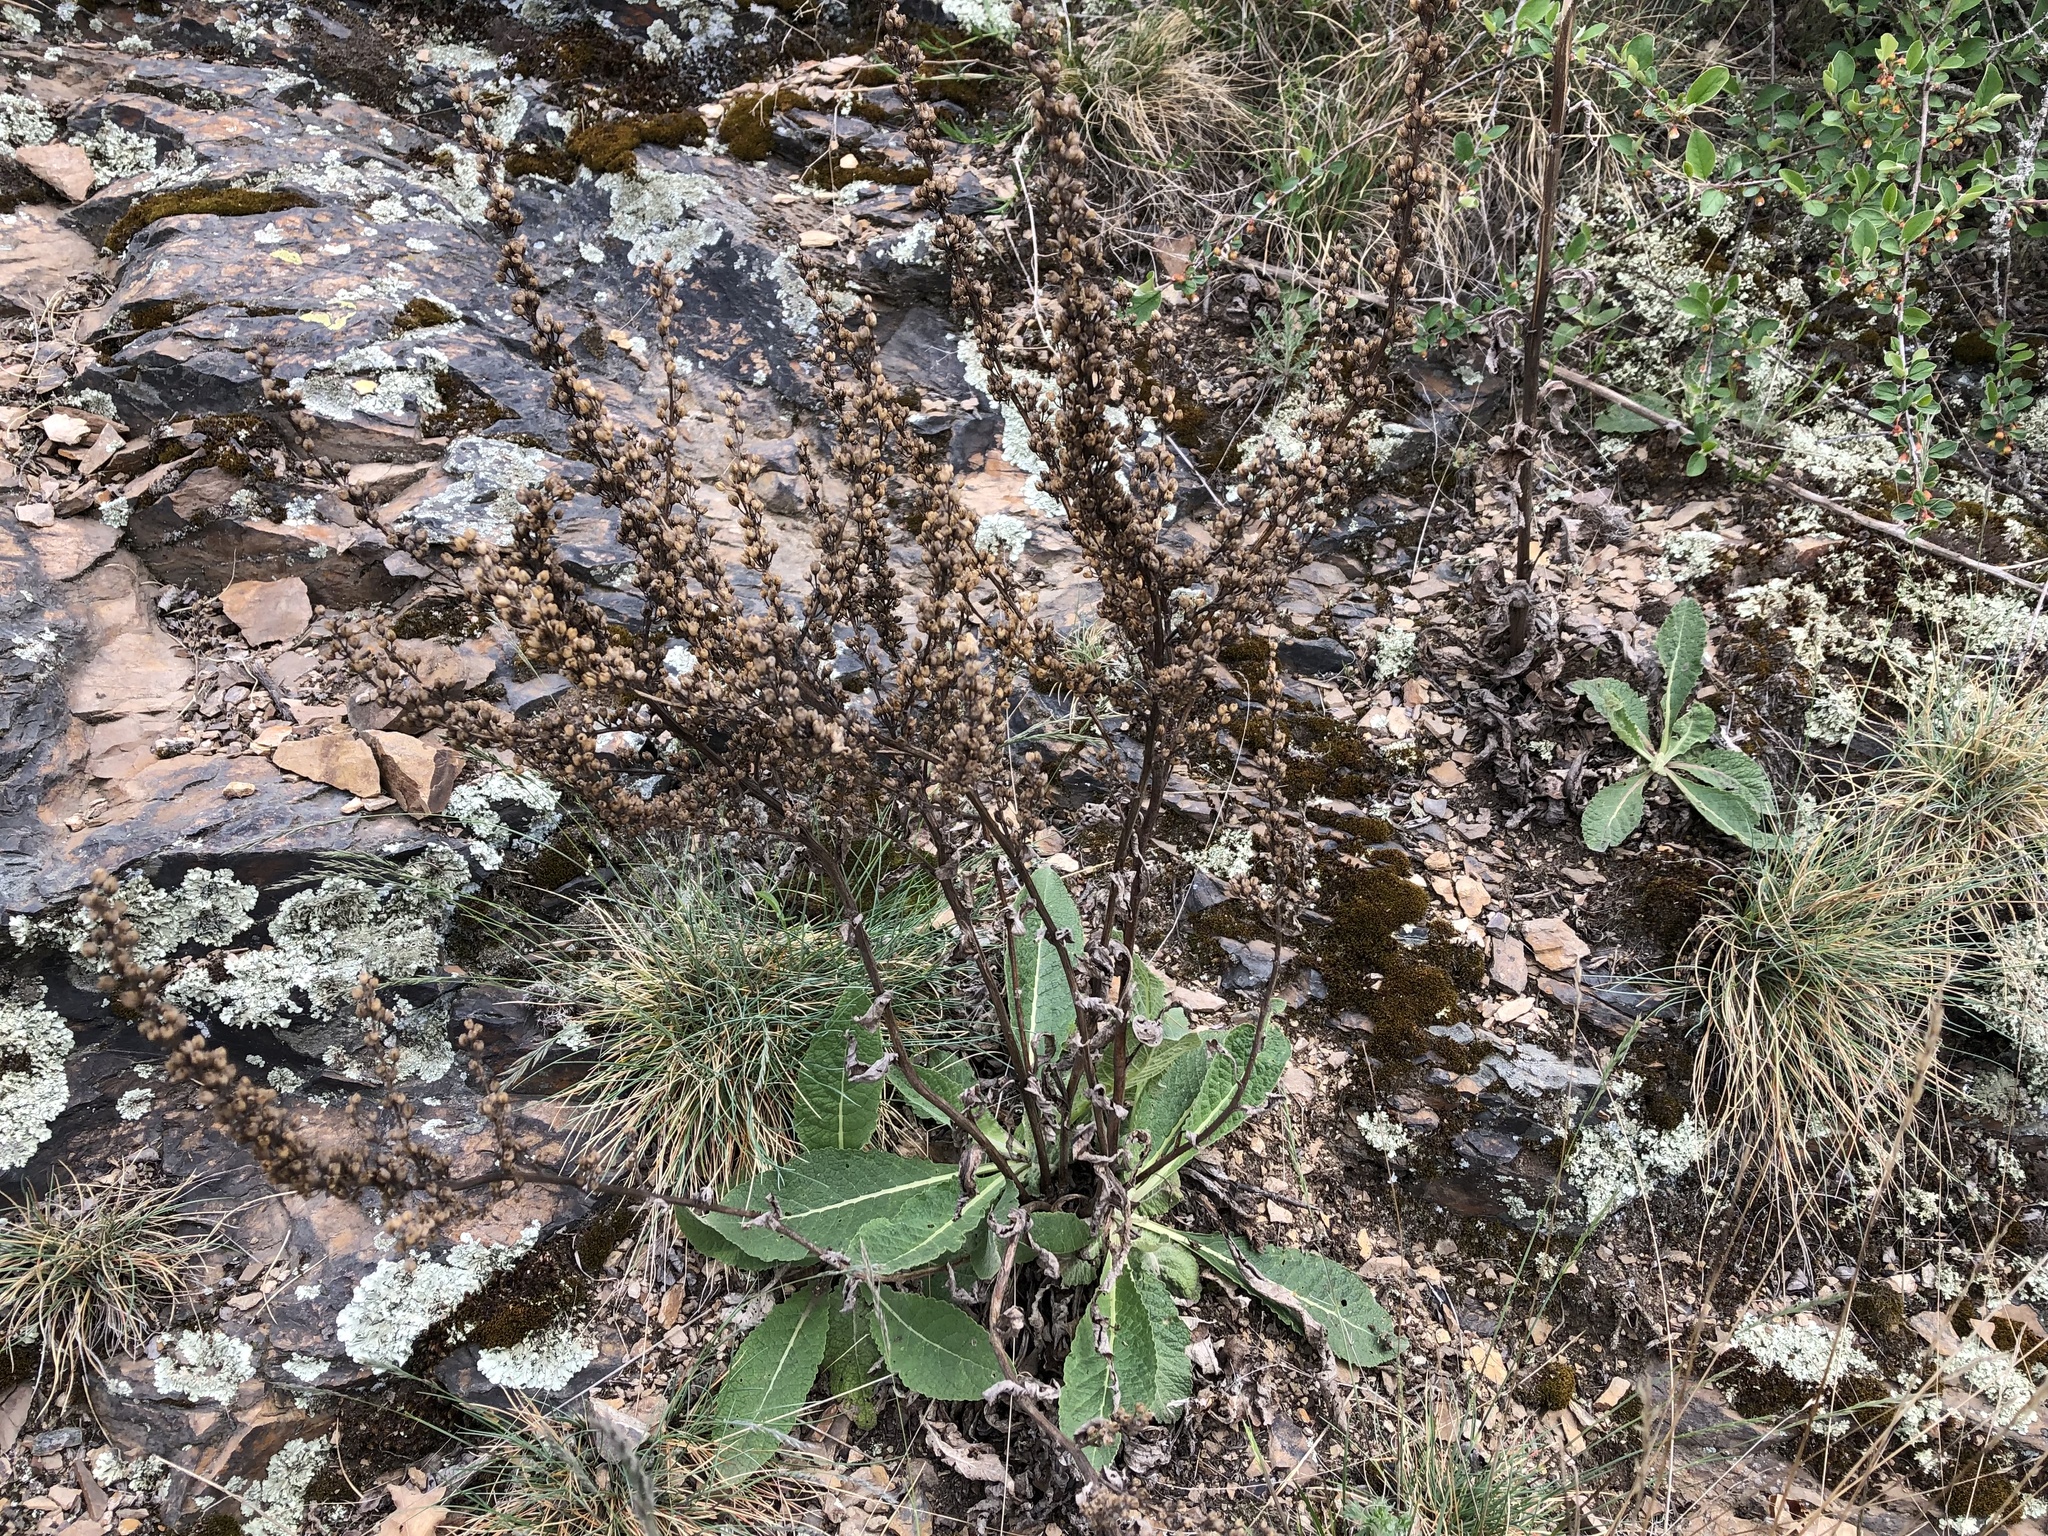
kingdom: Plantae
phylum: Tracheophyta
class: Magnoliopsida
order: Lamiales
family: Scrophulariaceae
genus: Verbascum
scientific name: Verbascum lychnitis
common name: White mullein
